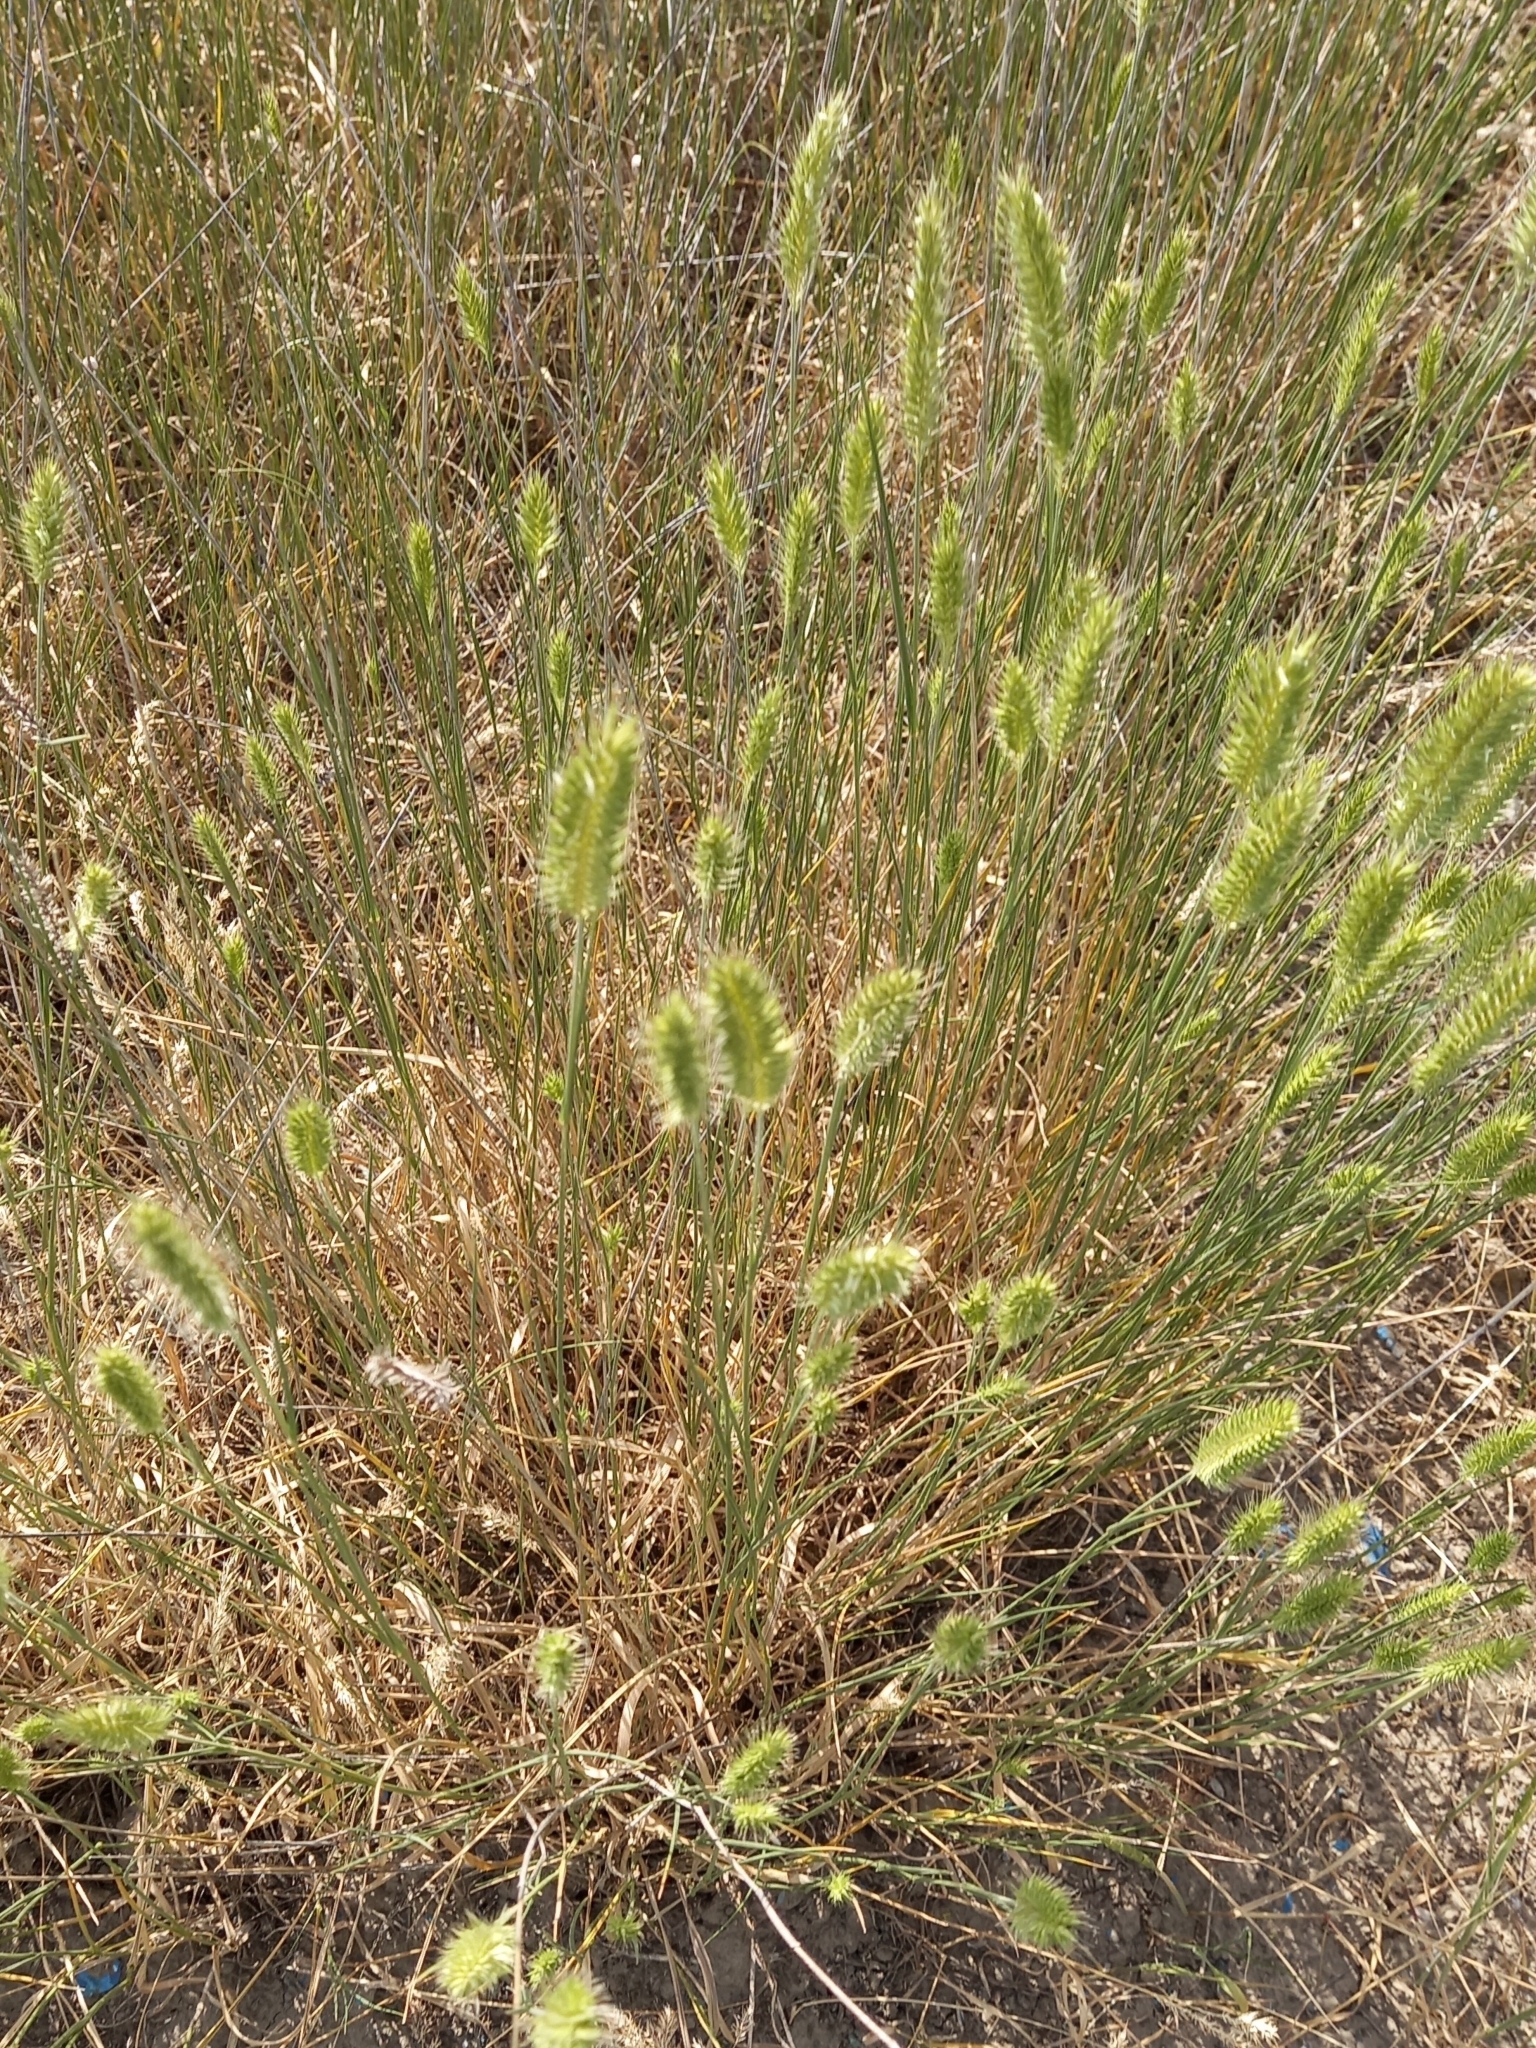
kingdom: Plantae
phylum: Tracheophyta
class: Liliopsida
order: Poales
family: Poaceae
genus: Agropyron
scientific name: Agropyron cristatum
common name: Crested wheatgrass
